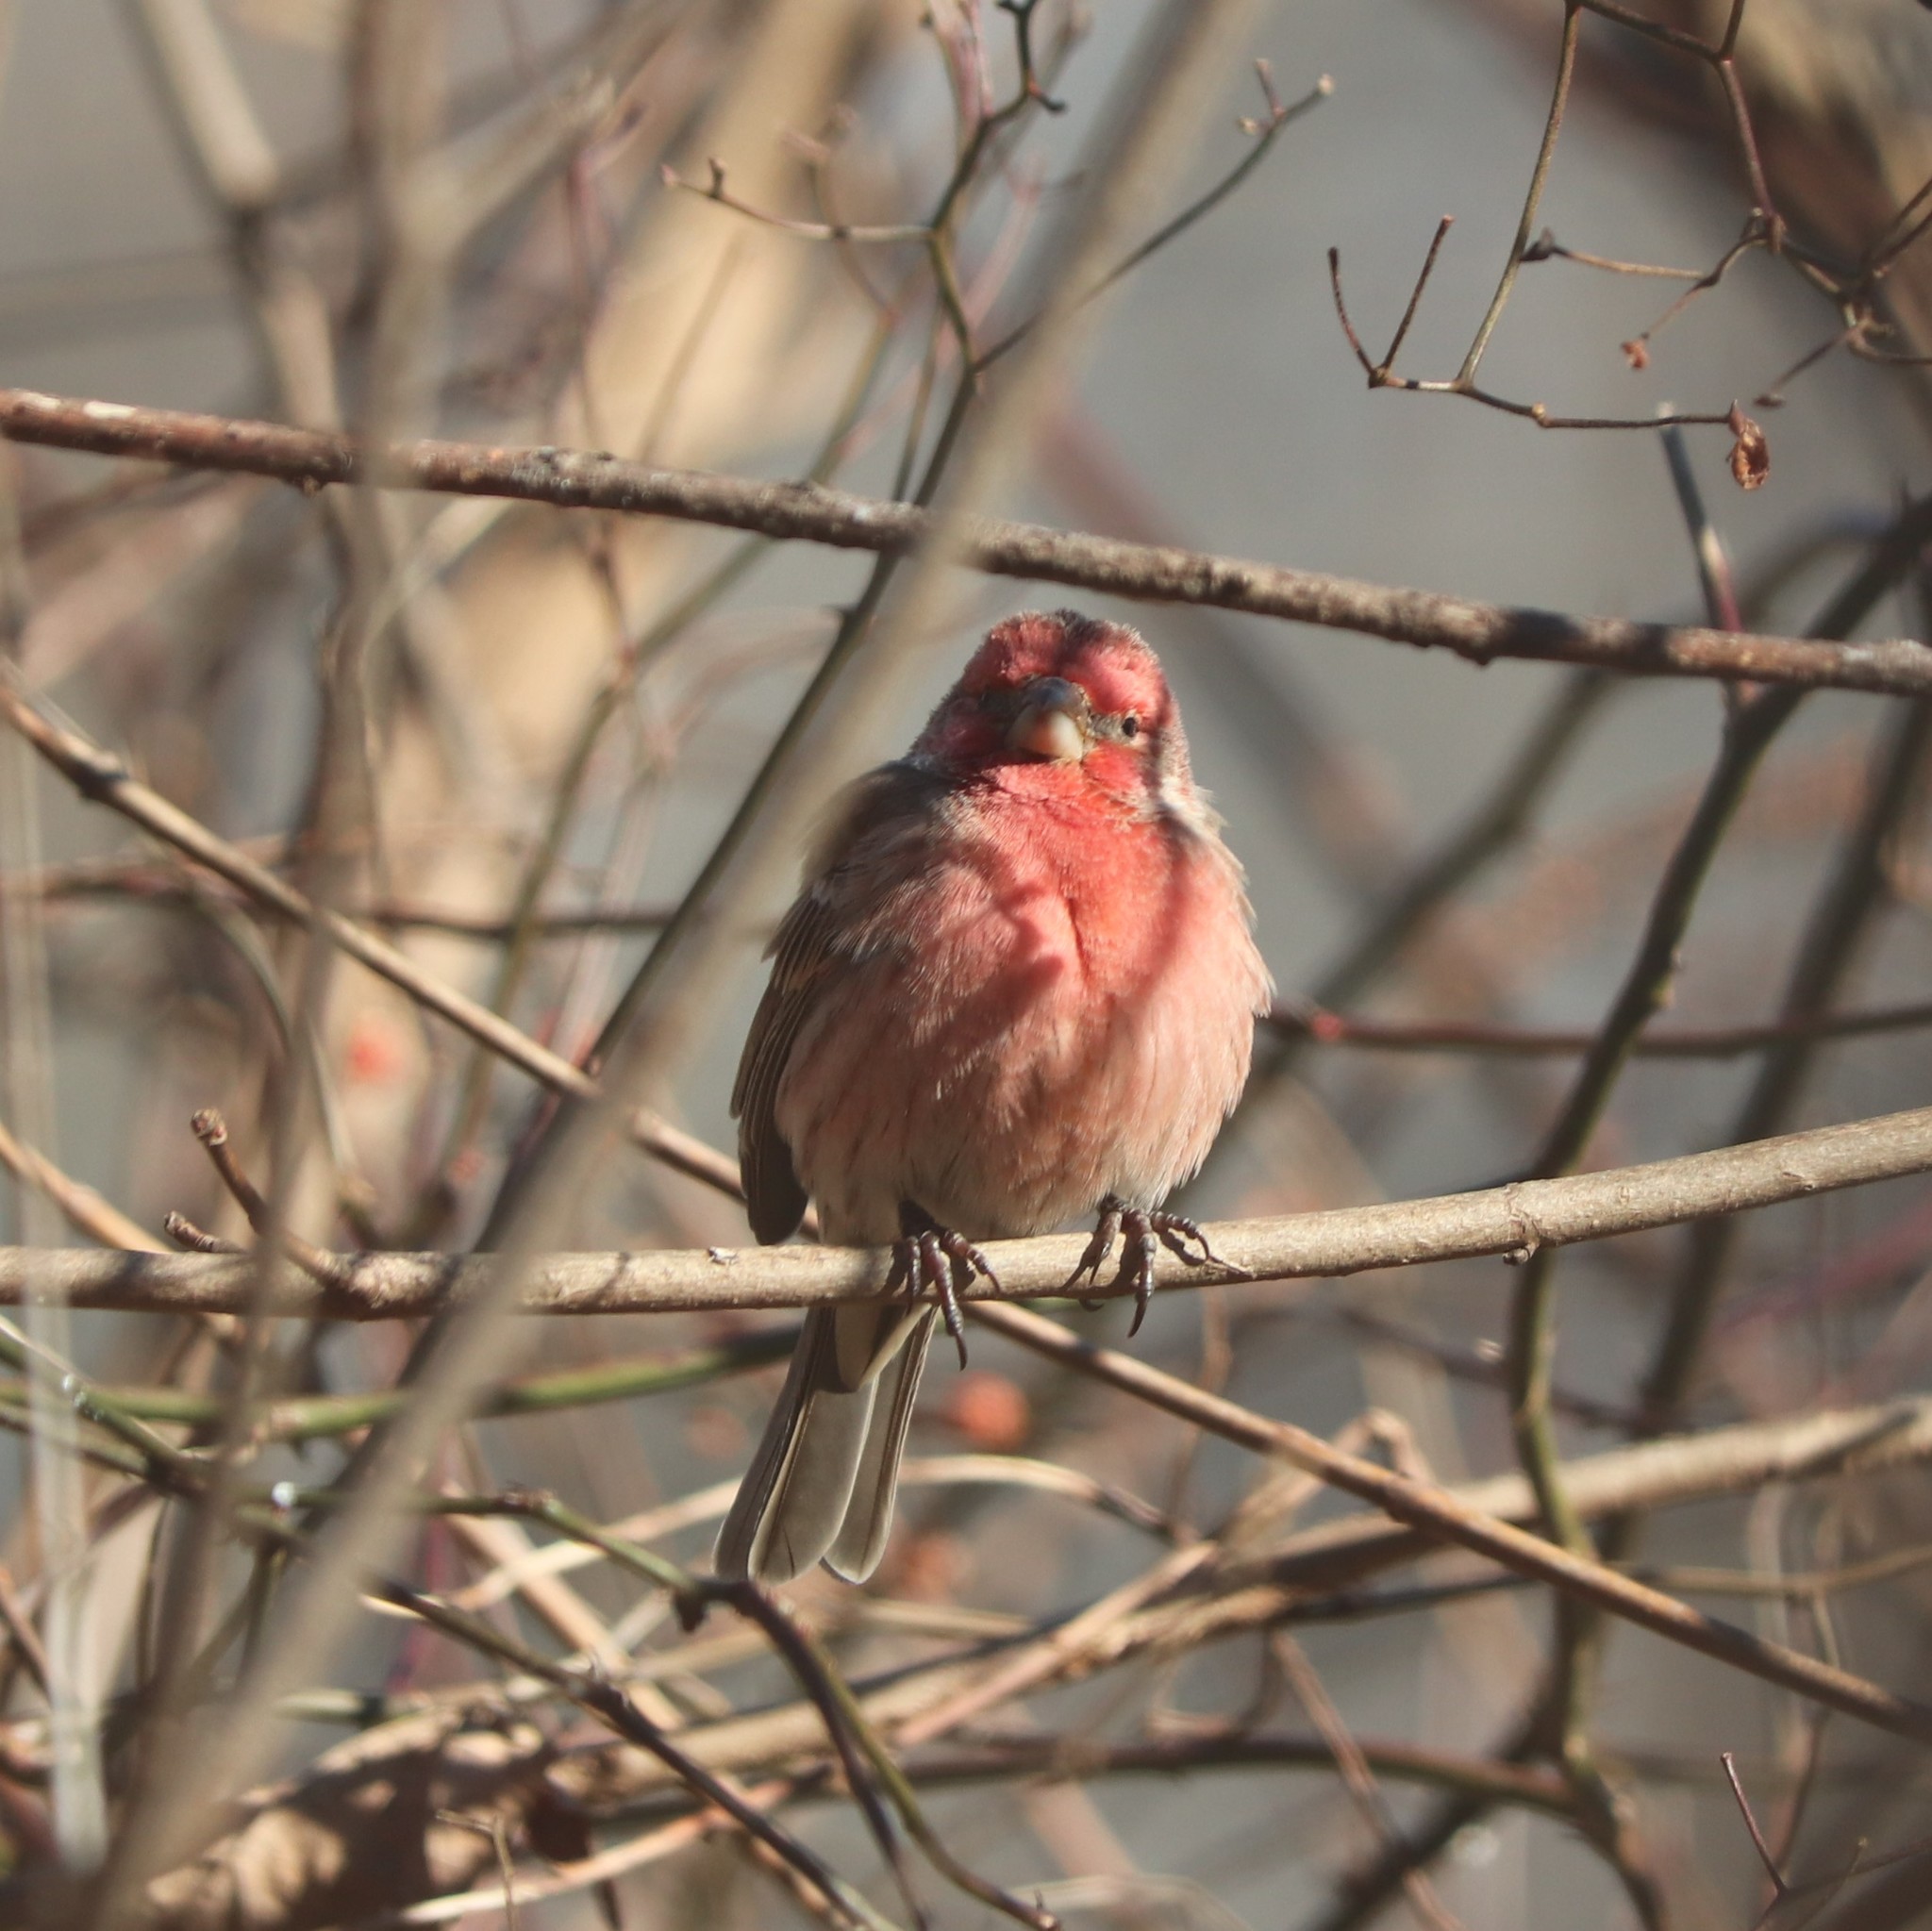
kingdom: Animalia
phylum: Chordata
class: Aves
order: Passeriformes
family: Fringillidae
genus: Haemorhous
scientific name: Haemorhous mexicanus
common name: House finch
